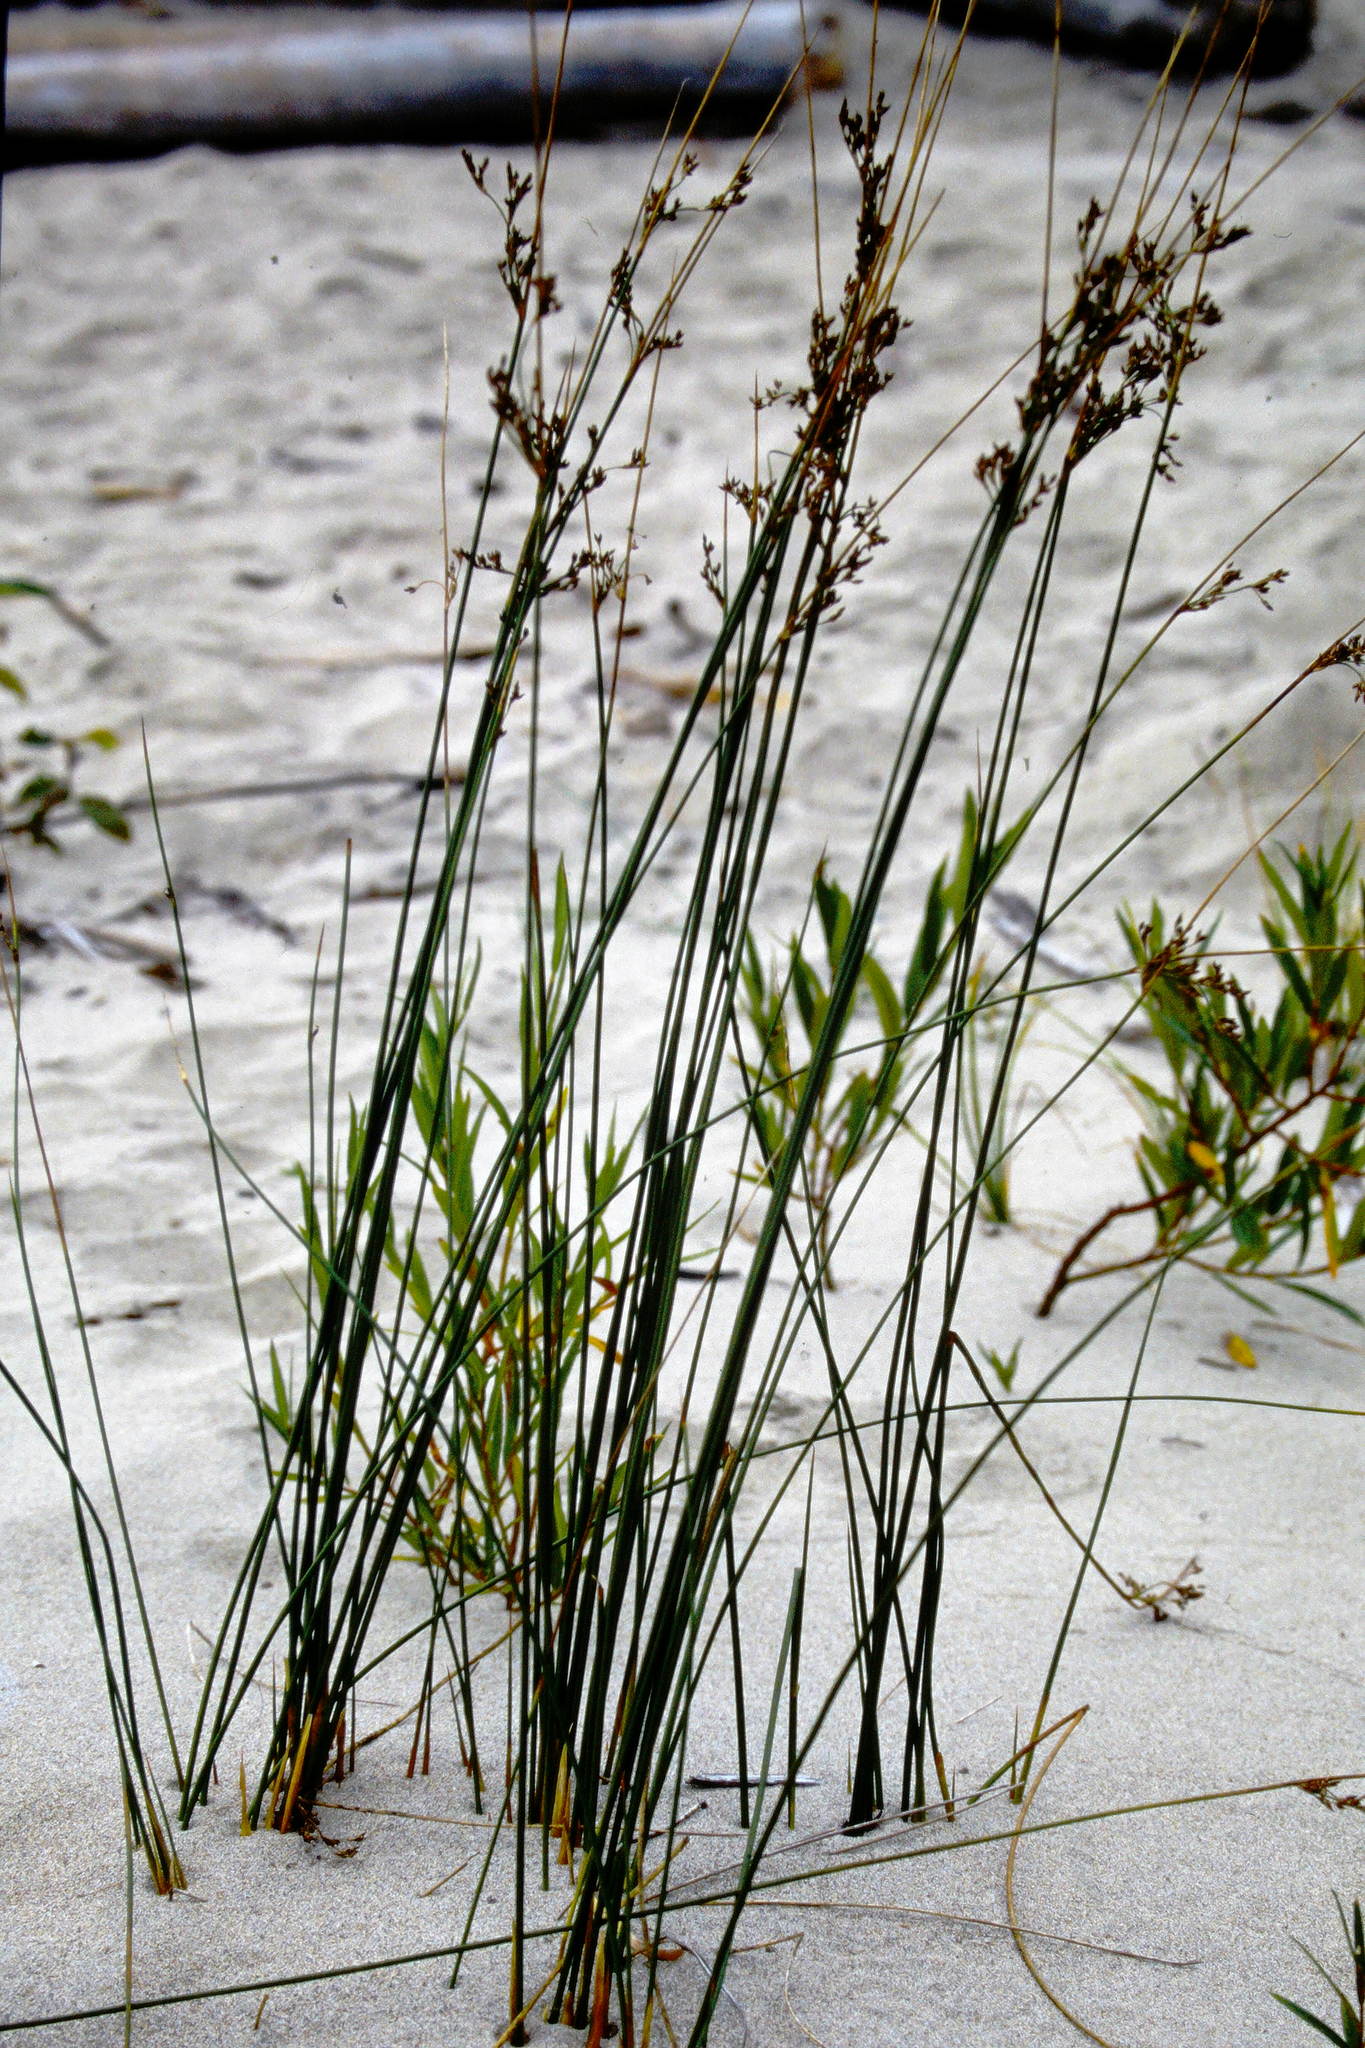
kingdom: Plantae
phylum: Tracheophyta
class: Liliopsida
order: Poales
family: Juncaceae
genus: Juncus
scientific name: Juncus balticus
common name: Baltic rush
